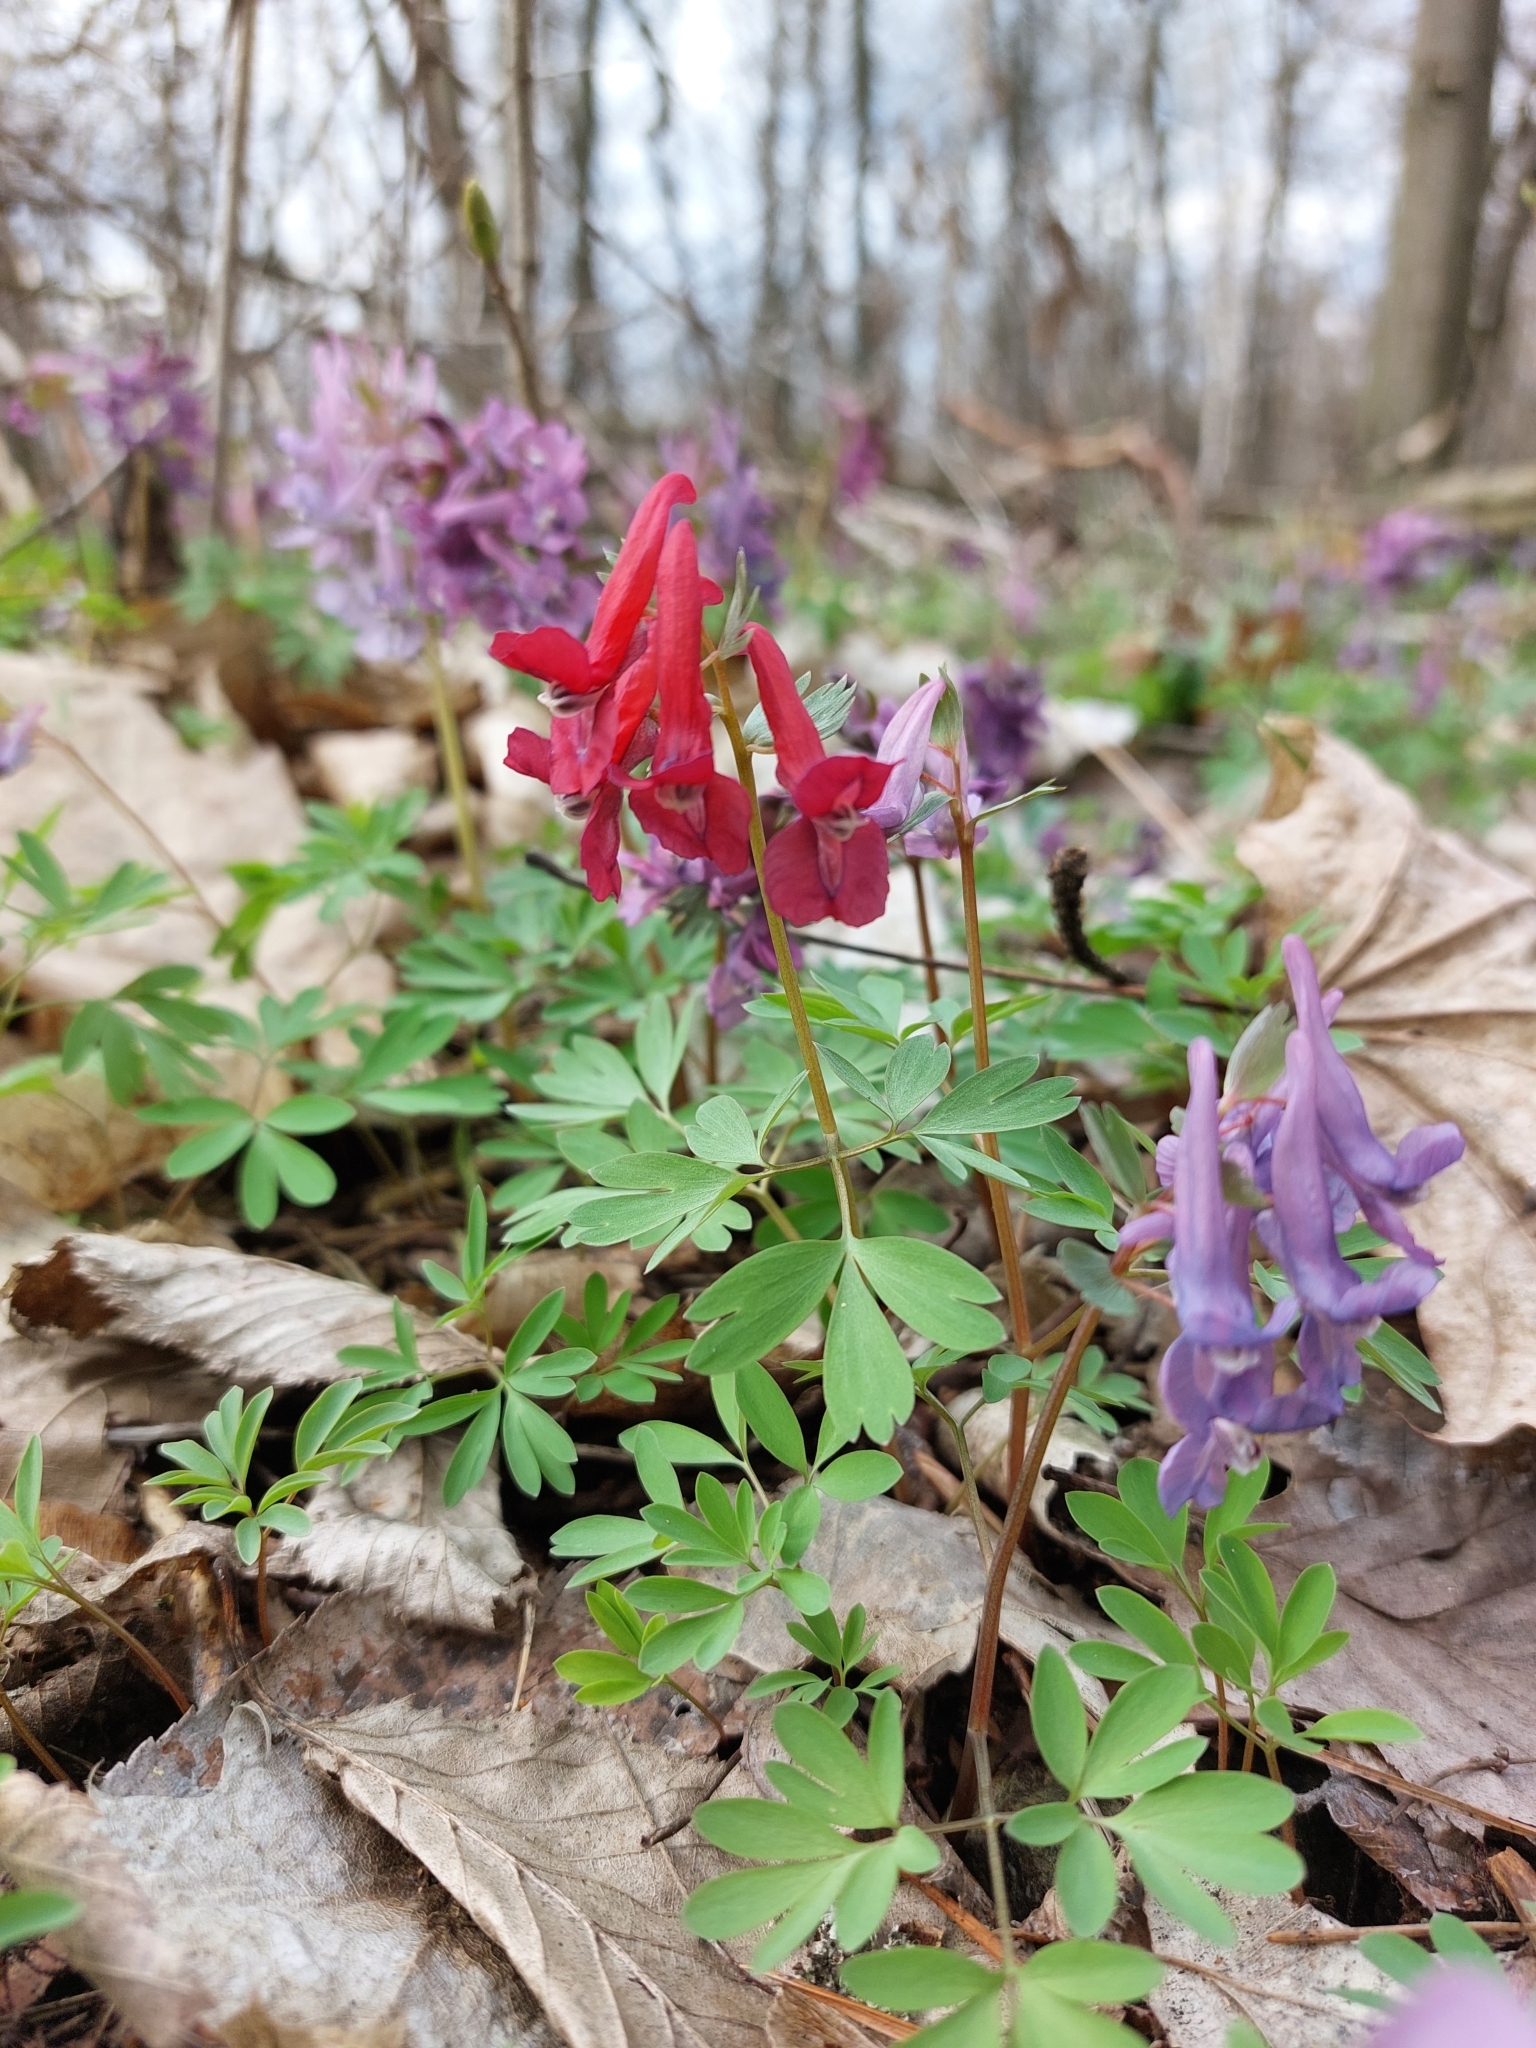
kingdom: Plantae
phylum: Tracheophyta
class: Magnoliopsida
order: Ranunculales
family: Papaveraceae
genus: Corydalis
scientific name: Corydalis solida
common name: Bird-in-a-bush
